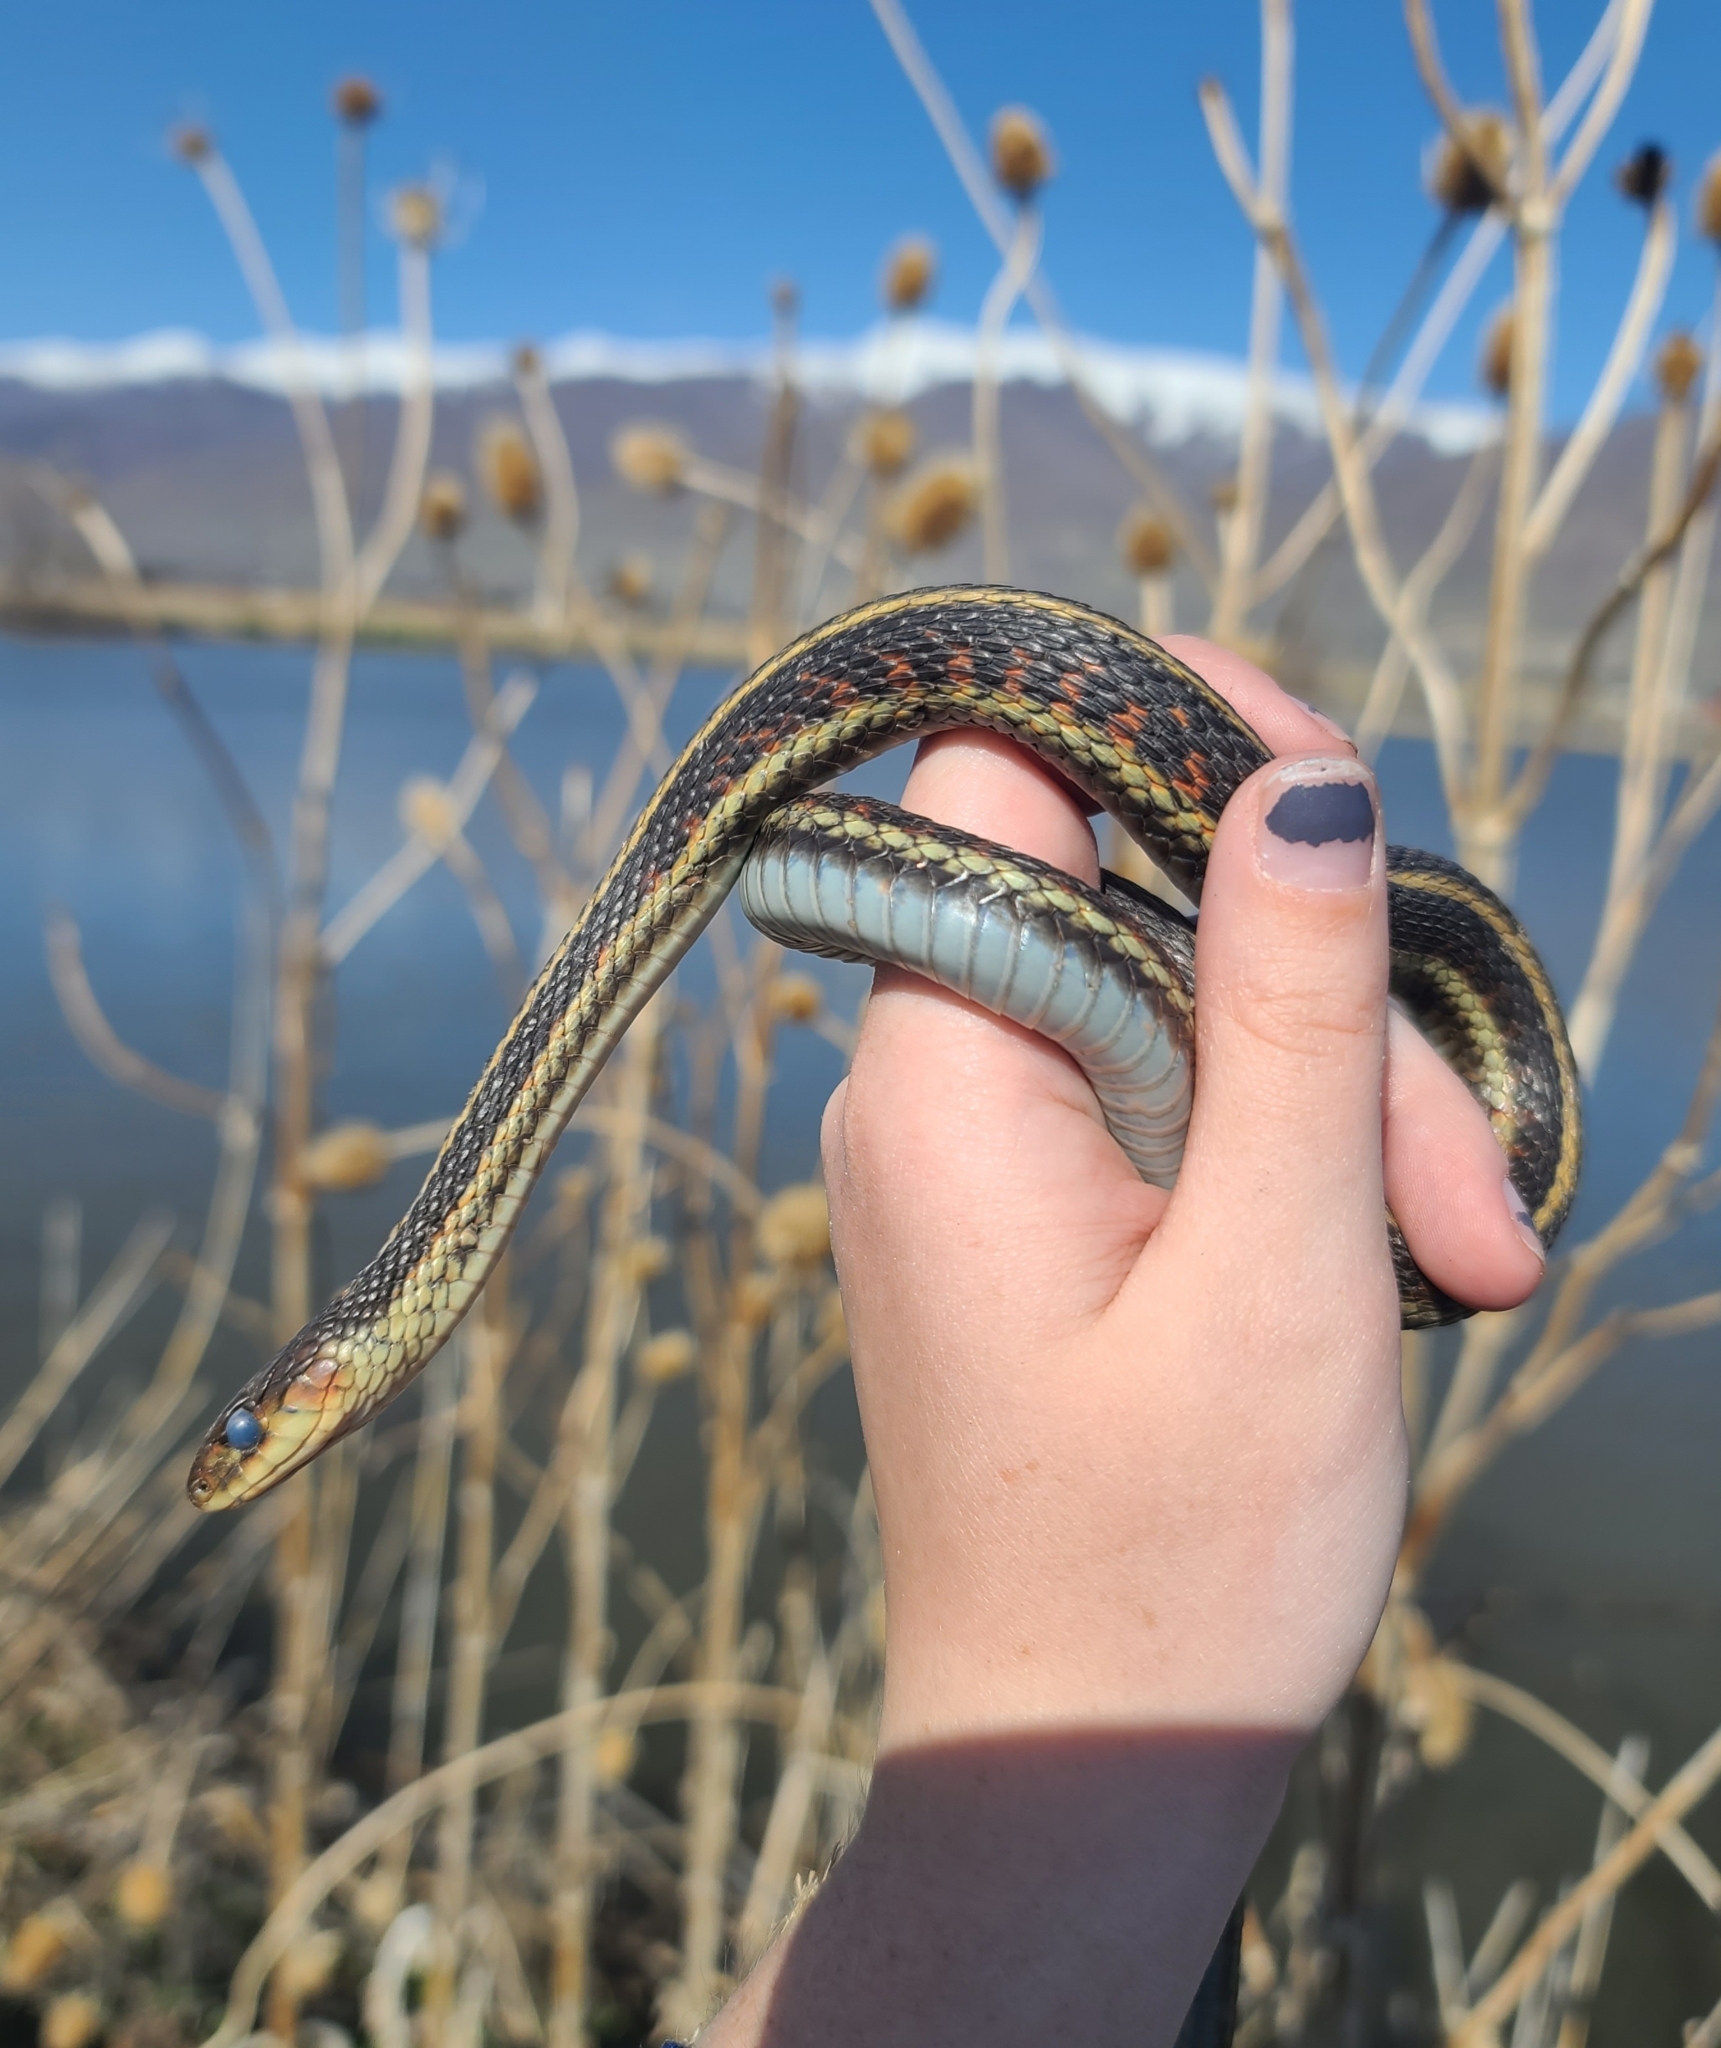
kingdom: Animalia
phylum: Chordata
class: Squamata
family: Colubridae
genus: Thamnophis
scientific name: Thamnophis sirtalis
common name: Common garter snake
